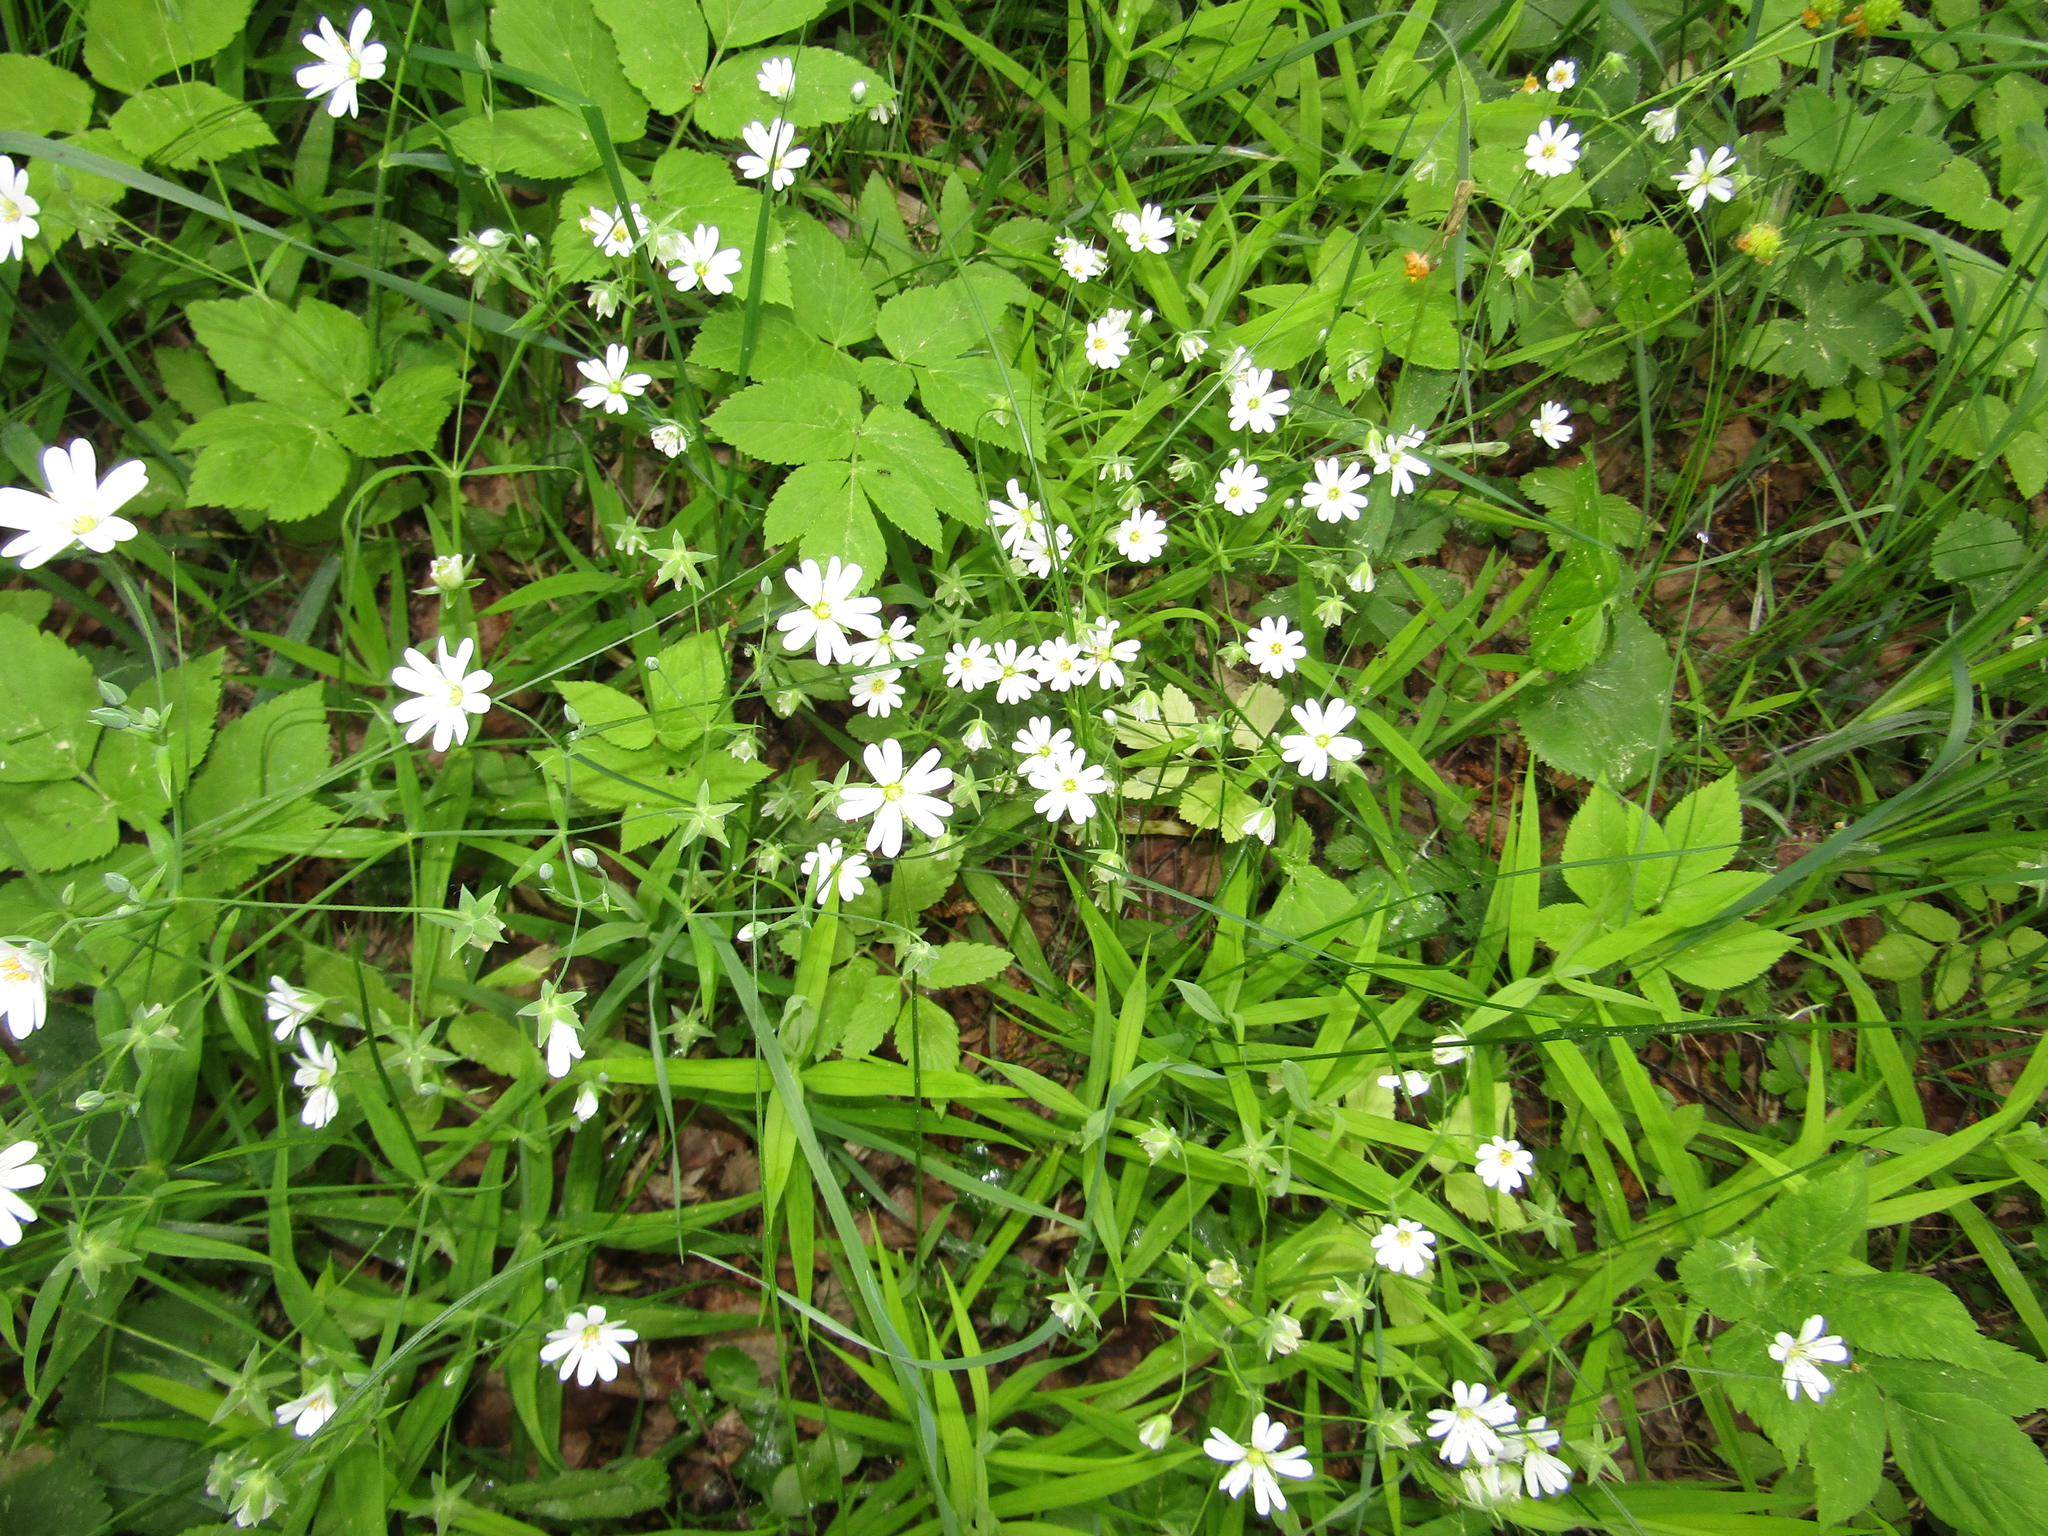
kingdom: Plantae
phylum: Tracheophyta
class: Magnoliopsida
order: Caryophyllales
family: Caryophyllaceae
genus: Rabelera
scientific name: Rabelera holostea
